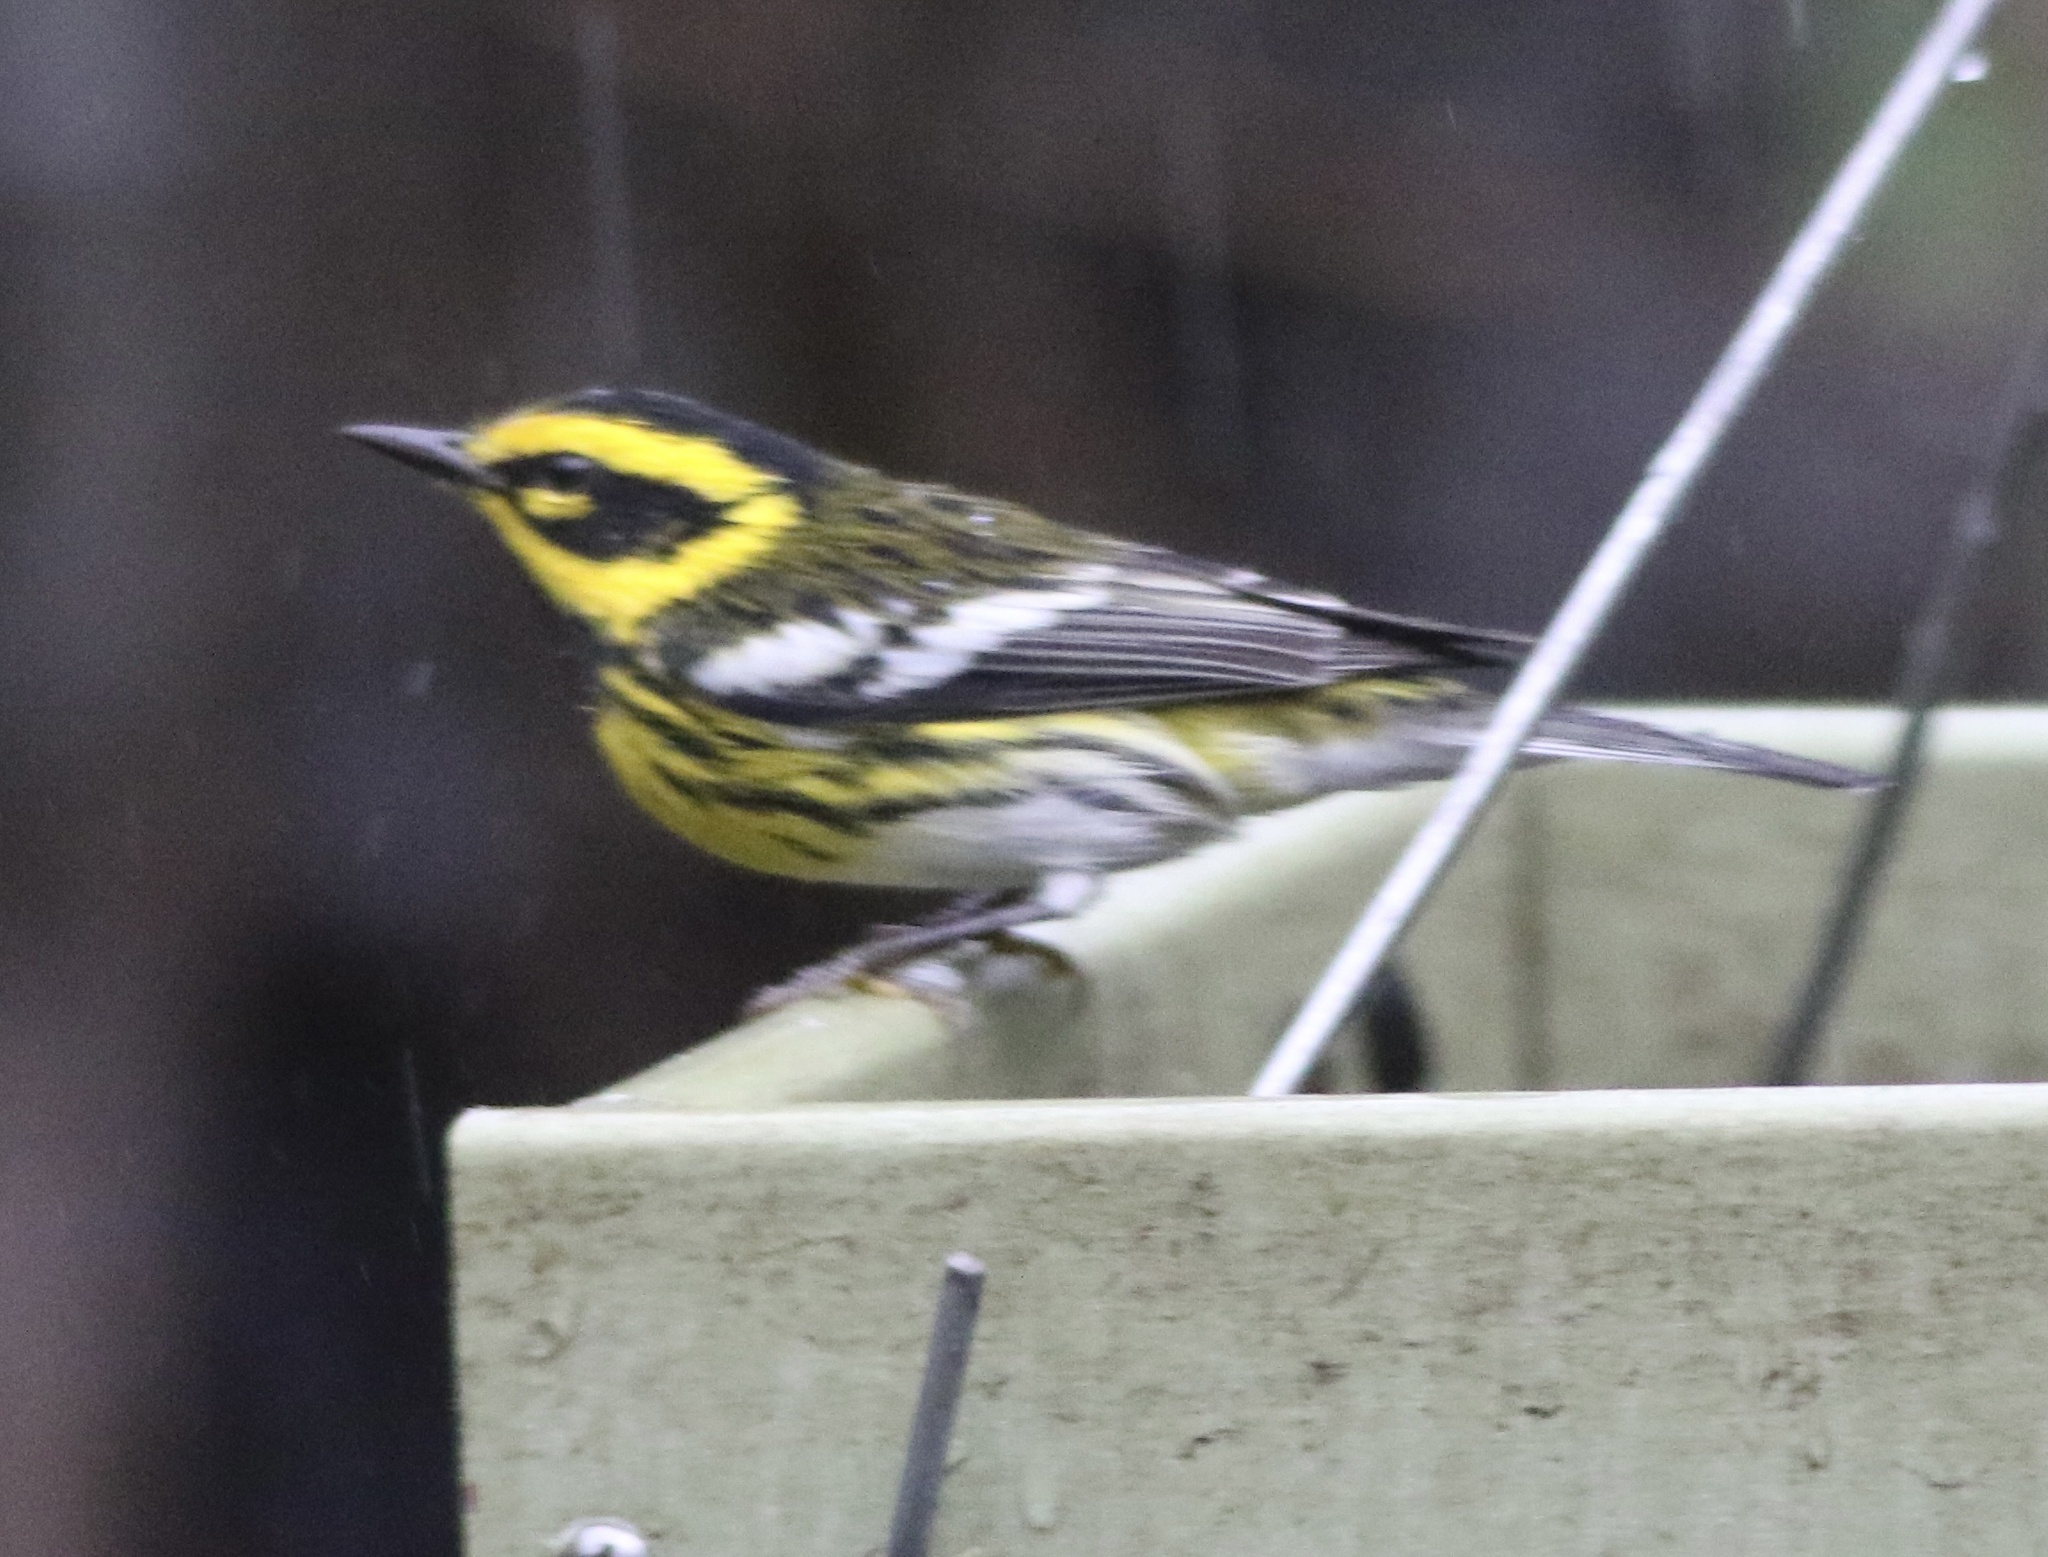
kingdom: Animalia
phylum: Chordata
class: Aves
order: Passeriformes
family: Parulidae
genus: Setophaga
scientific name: Setophaga townsendi
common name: Townsend's warbler
